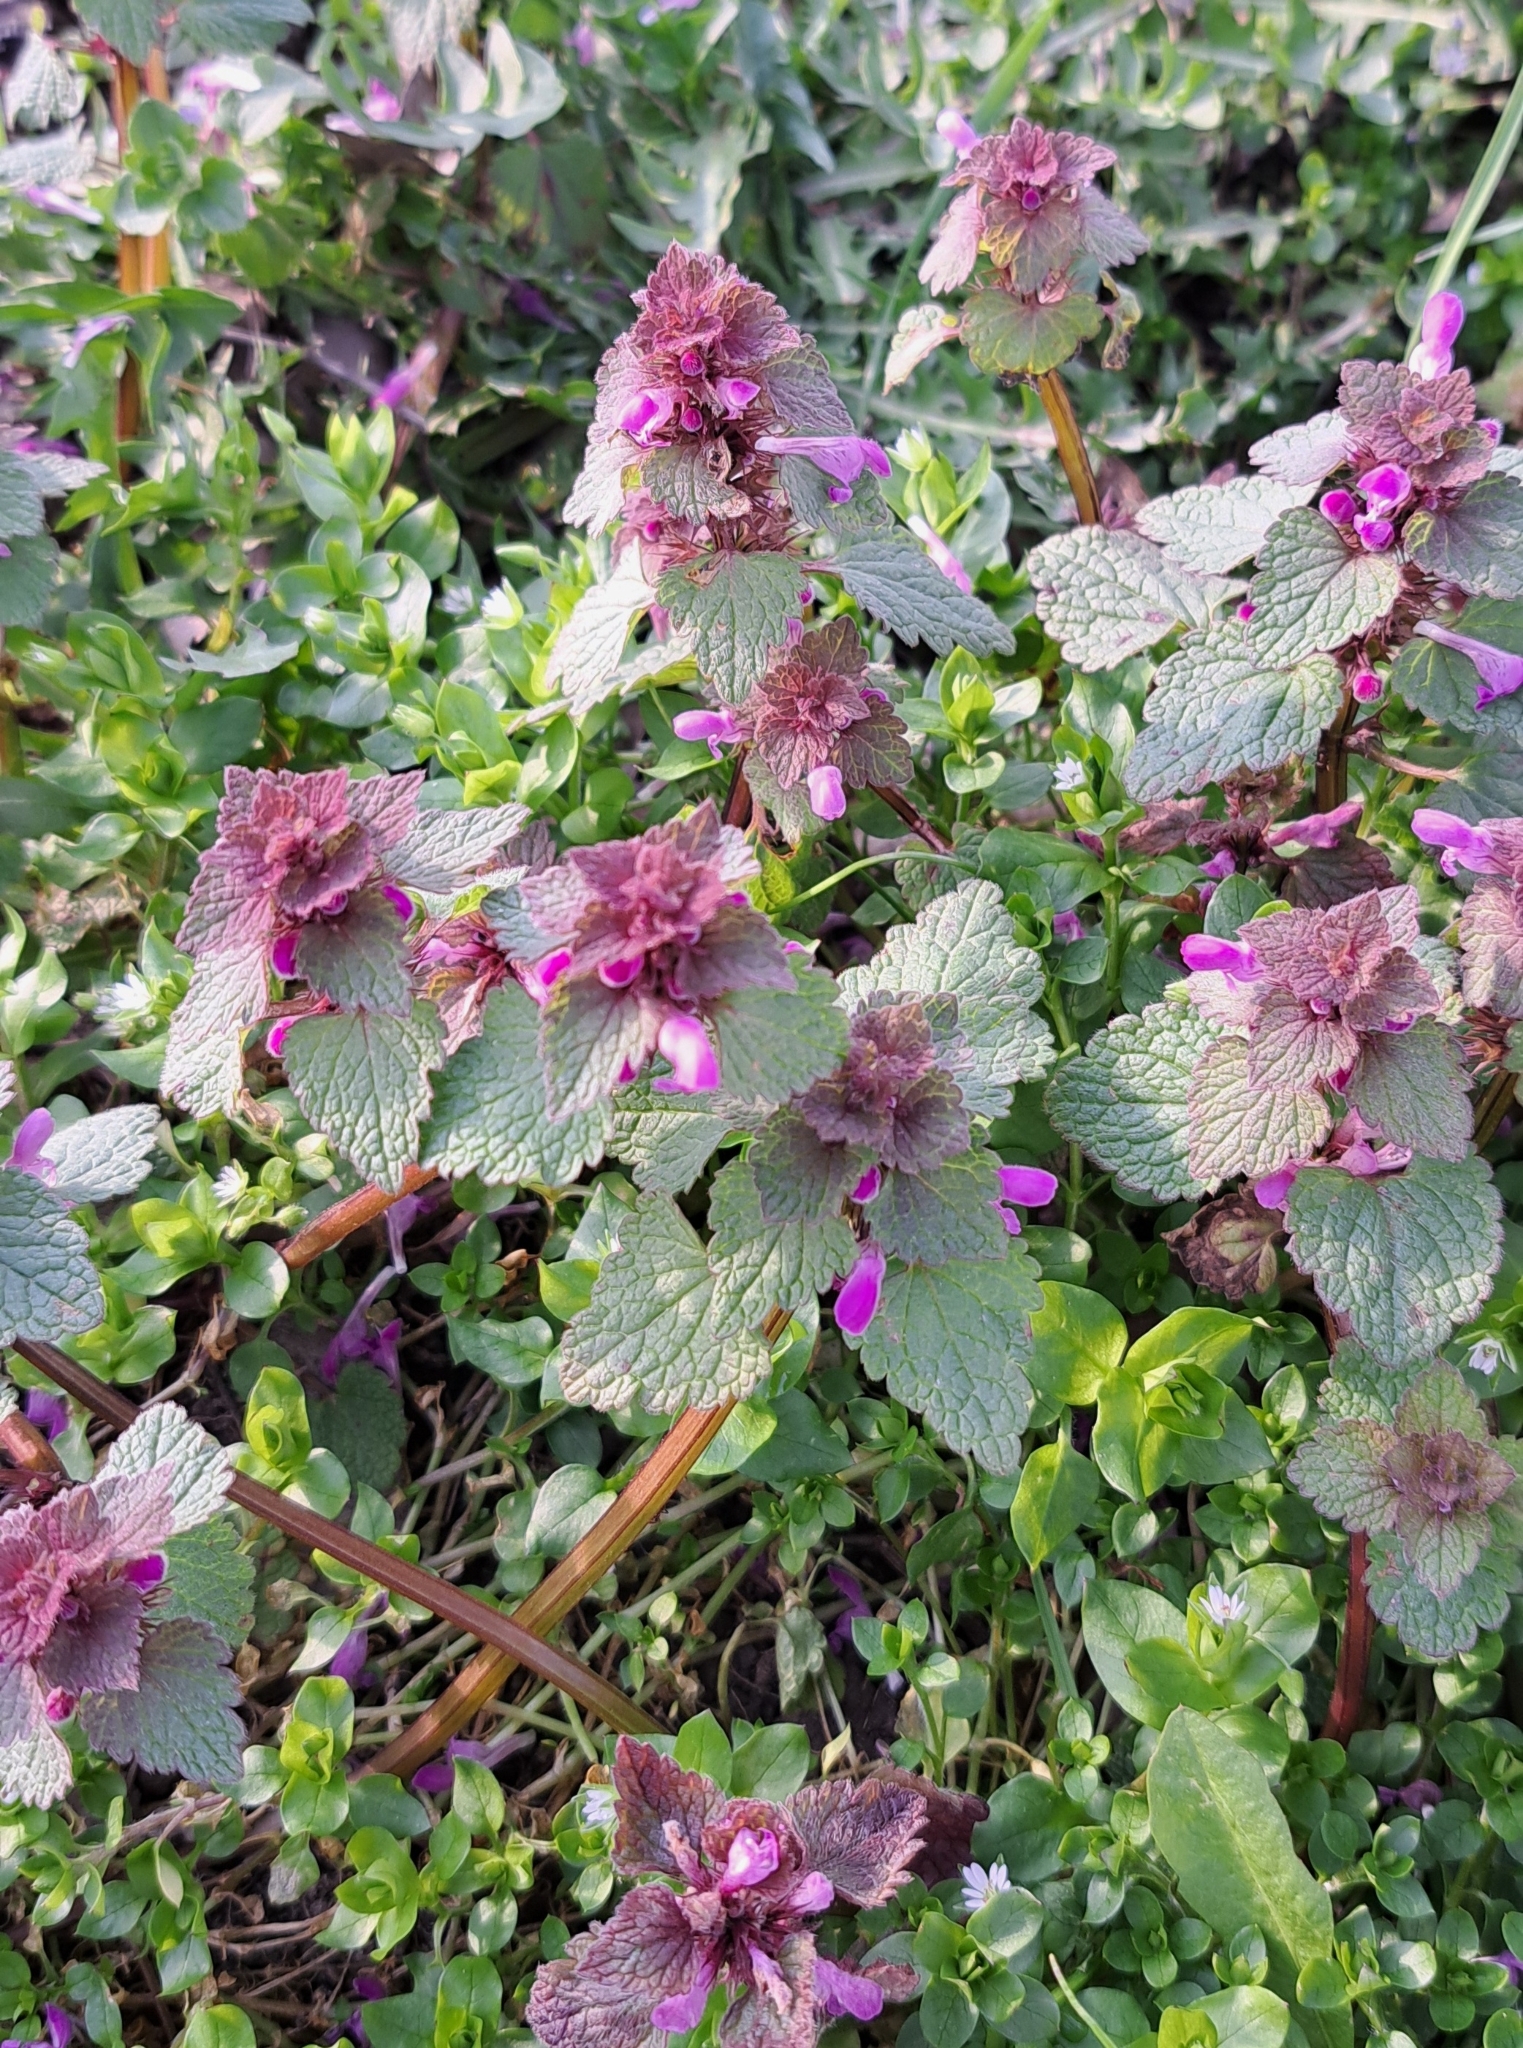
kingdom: Plantae
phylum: Tracheophyta
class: Magnoliopsida
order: Lamiales
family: Lamiaceae
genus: Lamium
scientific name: Lamium purpureum
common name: Red dead-nettle
